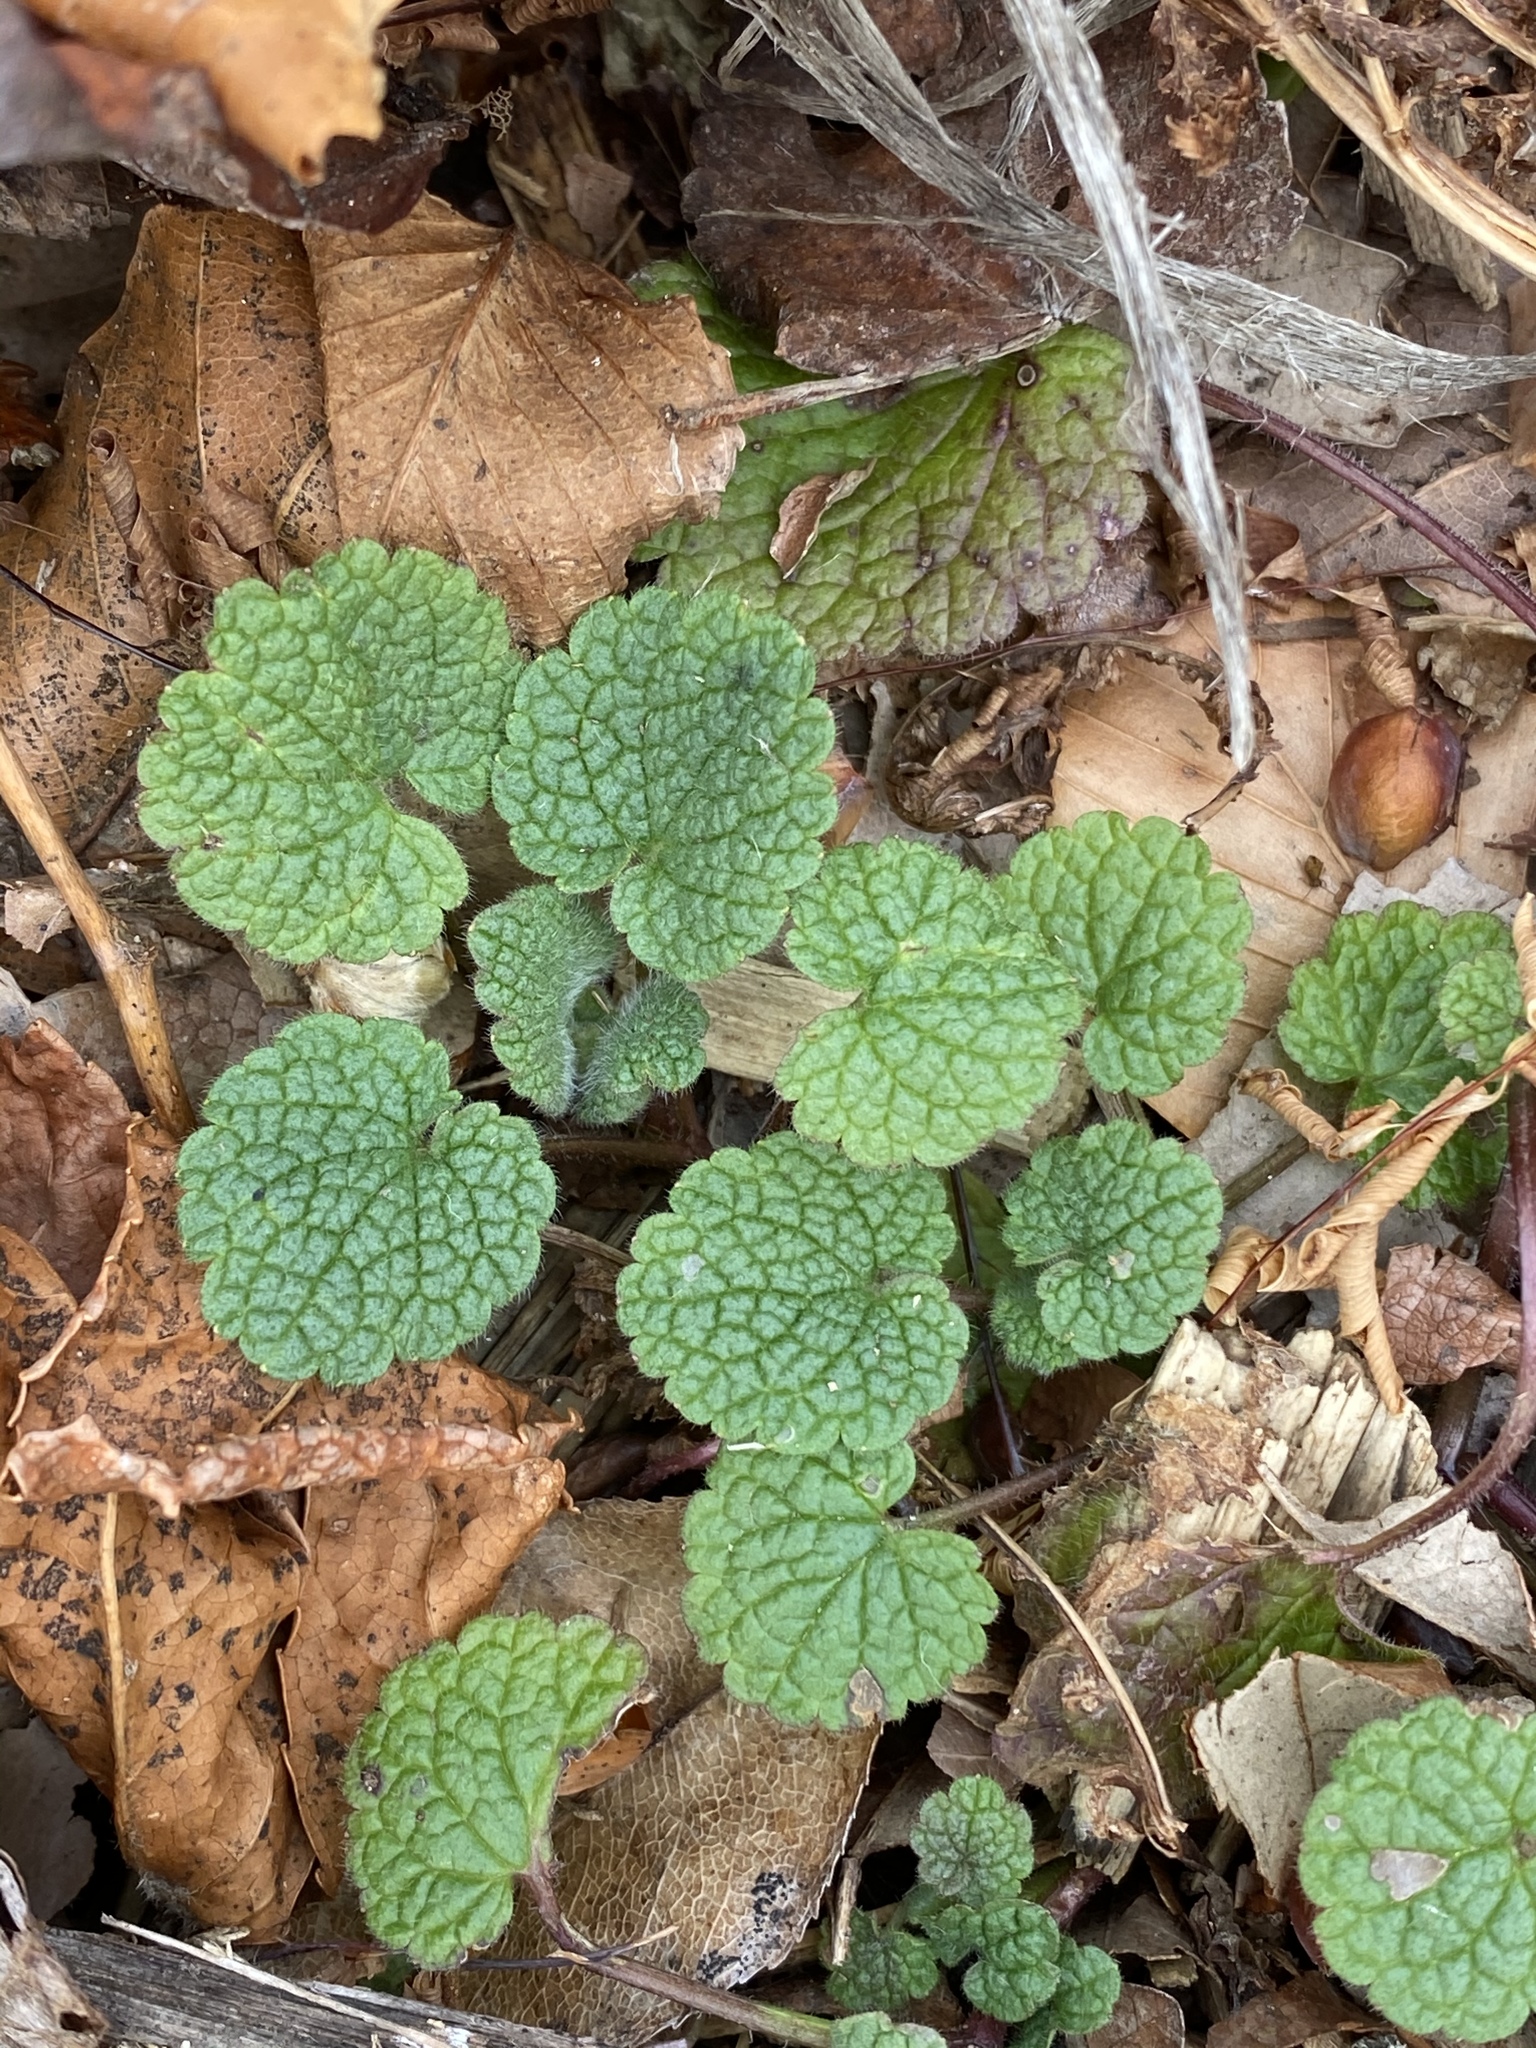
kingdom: Plantae
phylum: Tracheophyta
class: Magnoliopsida
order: Lamiales
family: Lamiaceae
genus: Lamium
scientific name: Lamium purpureum
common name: Red dead-nettle
